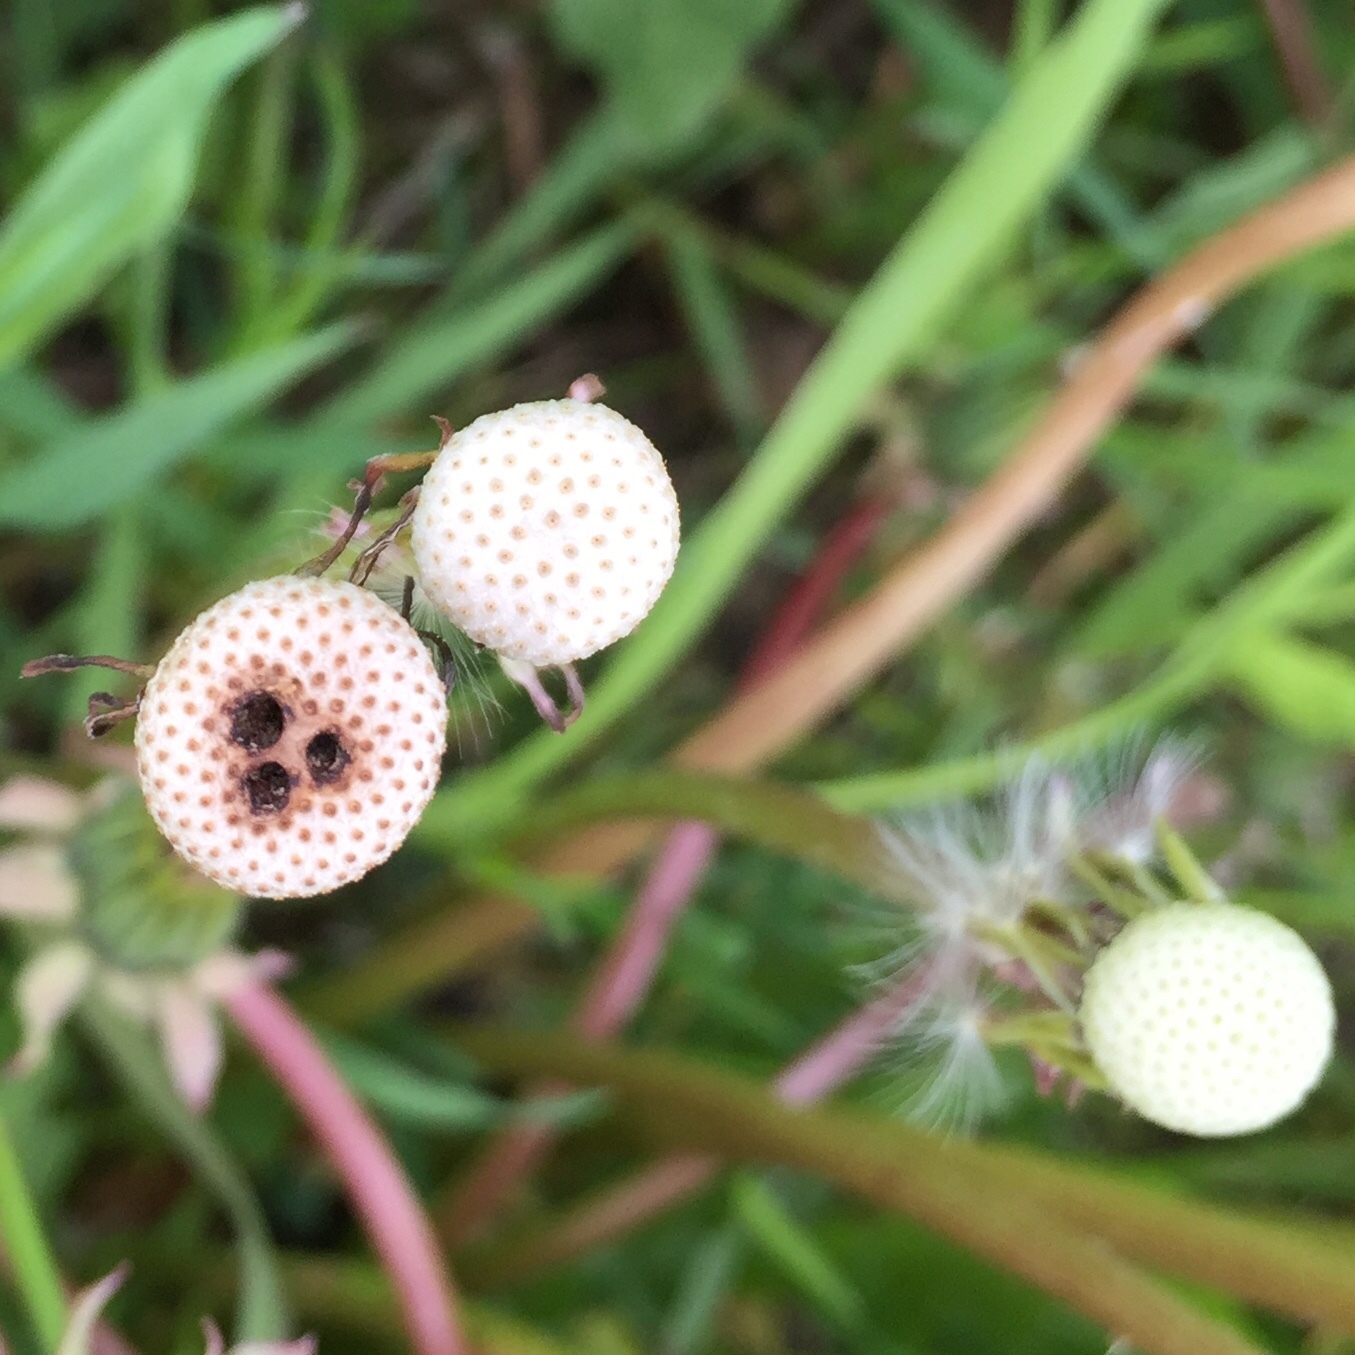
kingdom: Animalia
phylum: Arthropoda
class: Insecta
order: Coleoptera
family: Curculionidae
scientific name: Curculionidae
